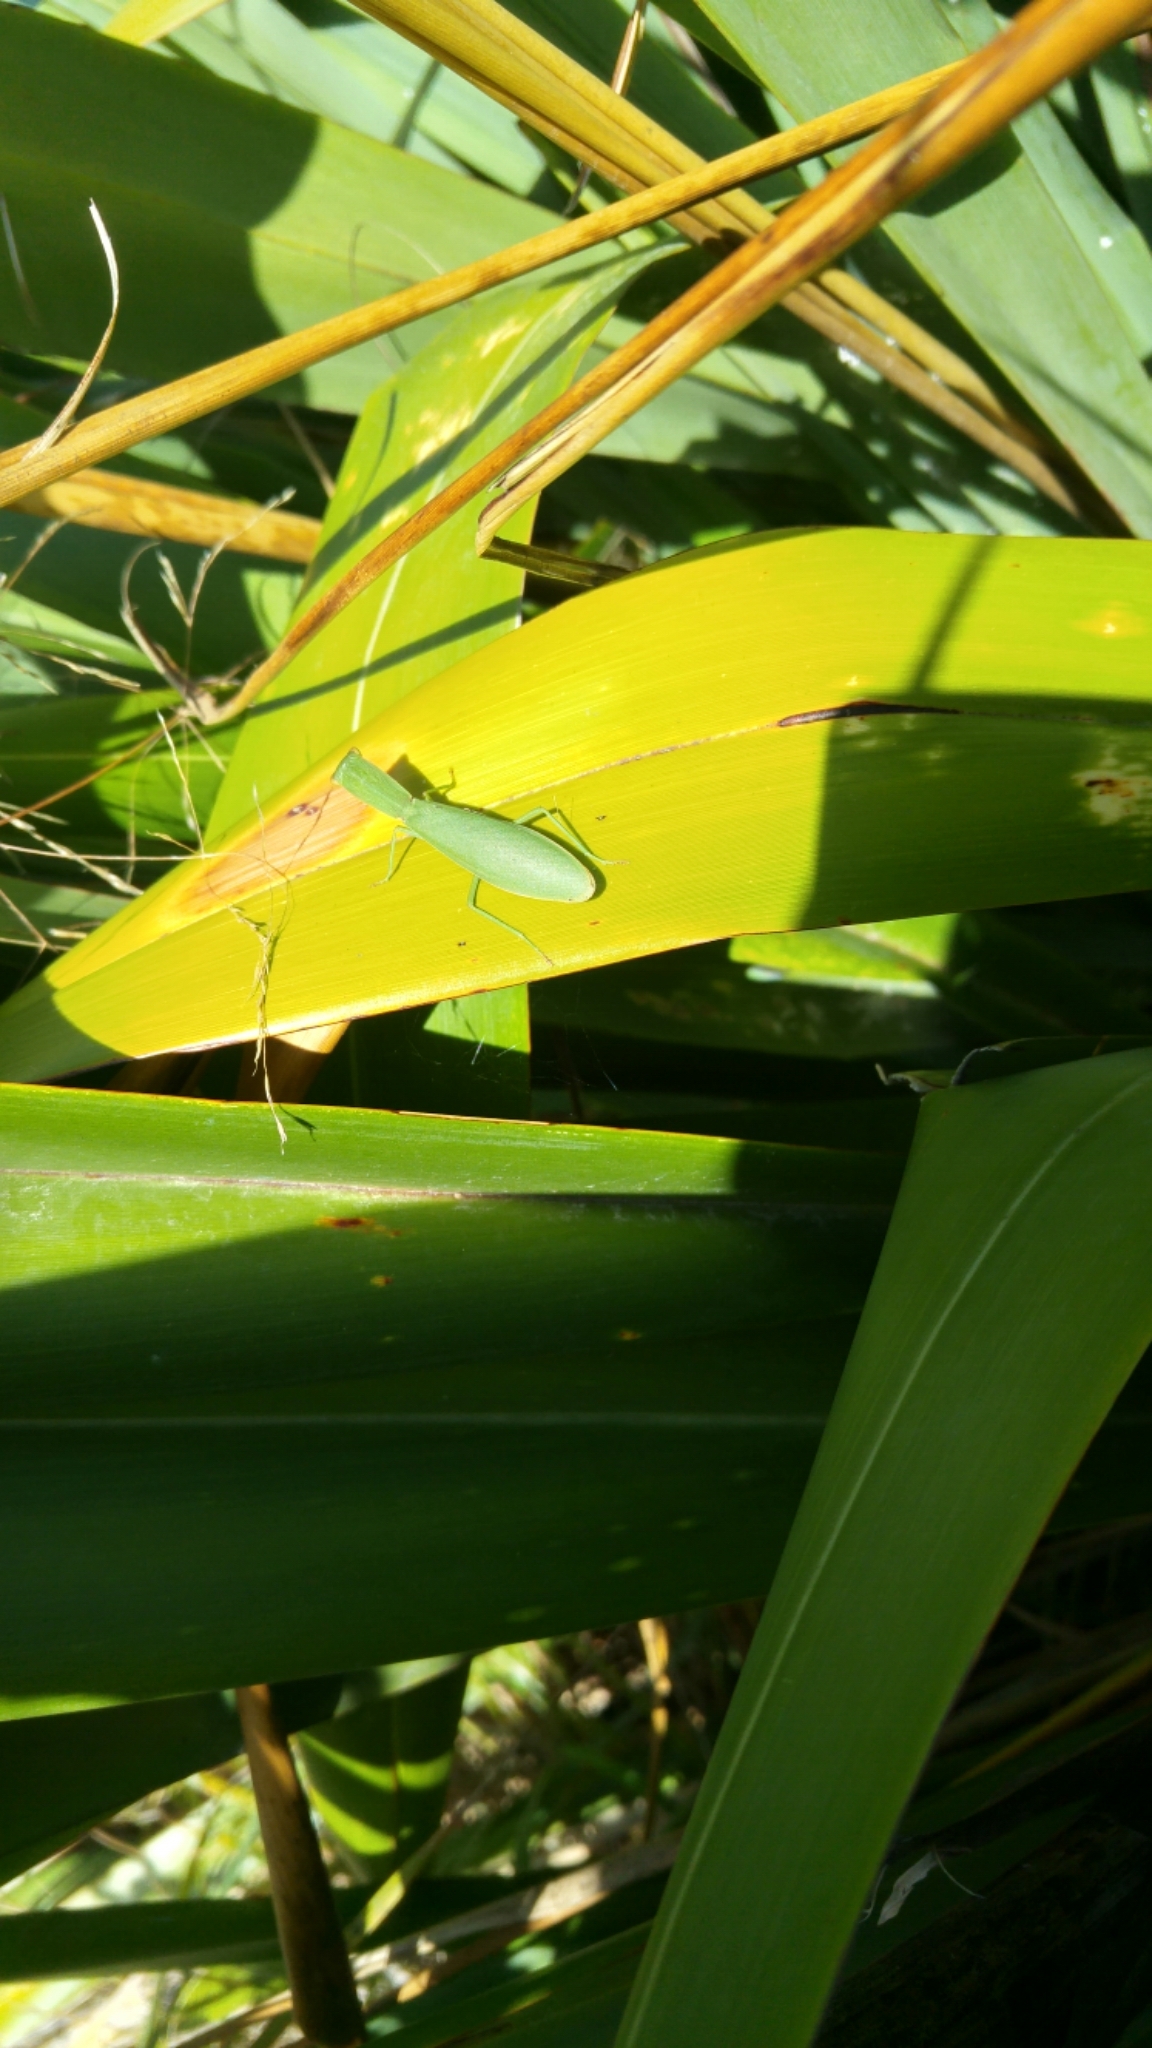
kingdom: Animalia
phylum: Arthropoda
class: Insecta
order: Mantodea
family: Mantidae
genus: Orthodera
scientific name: Orthodera novaezealandiae
